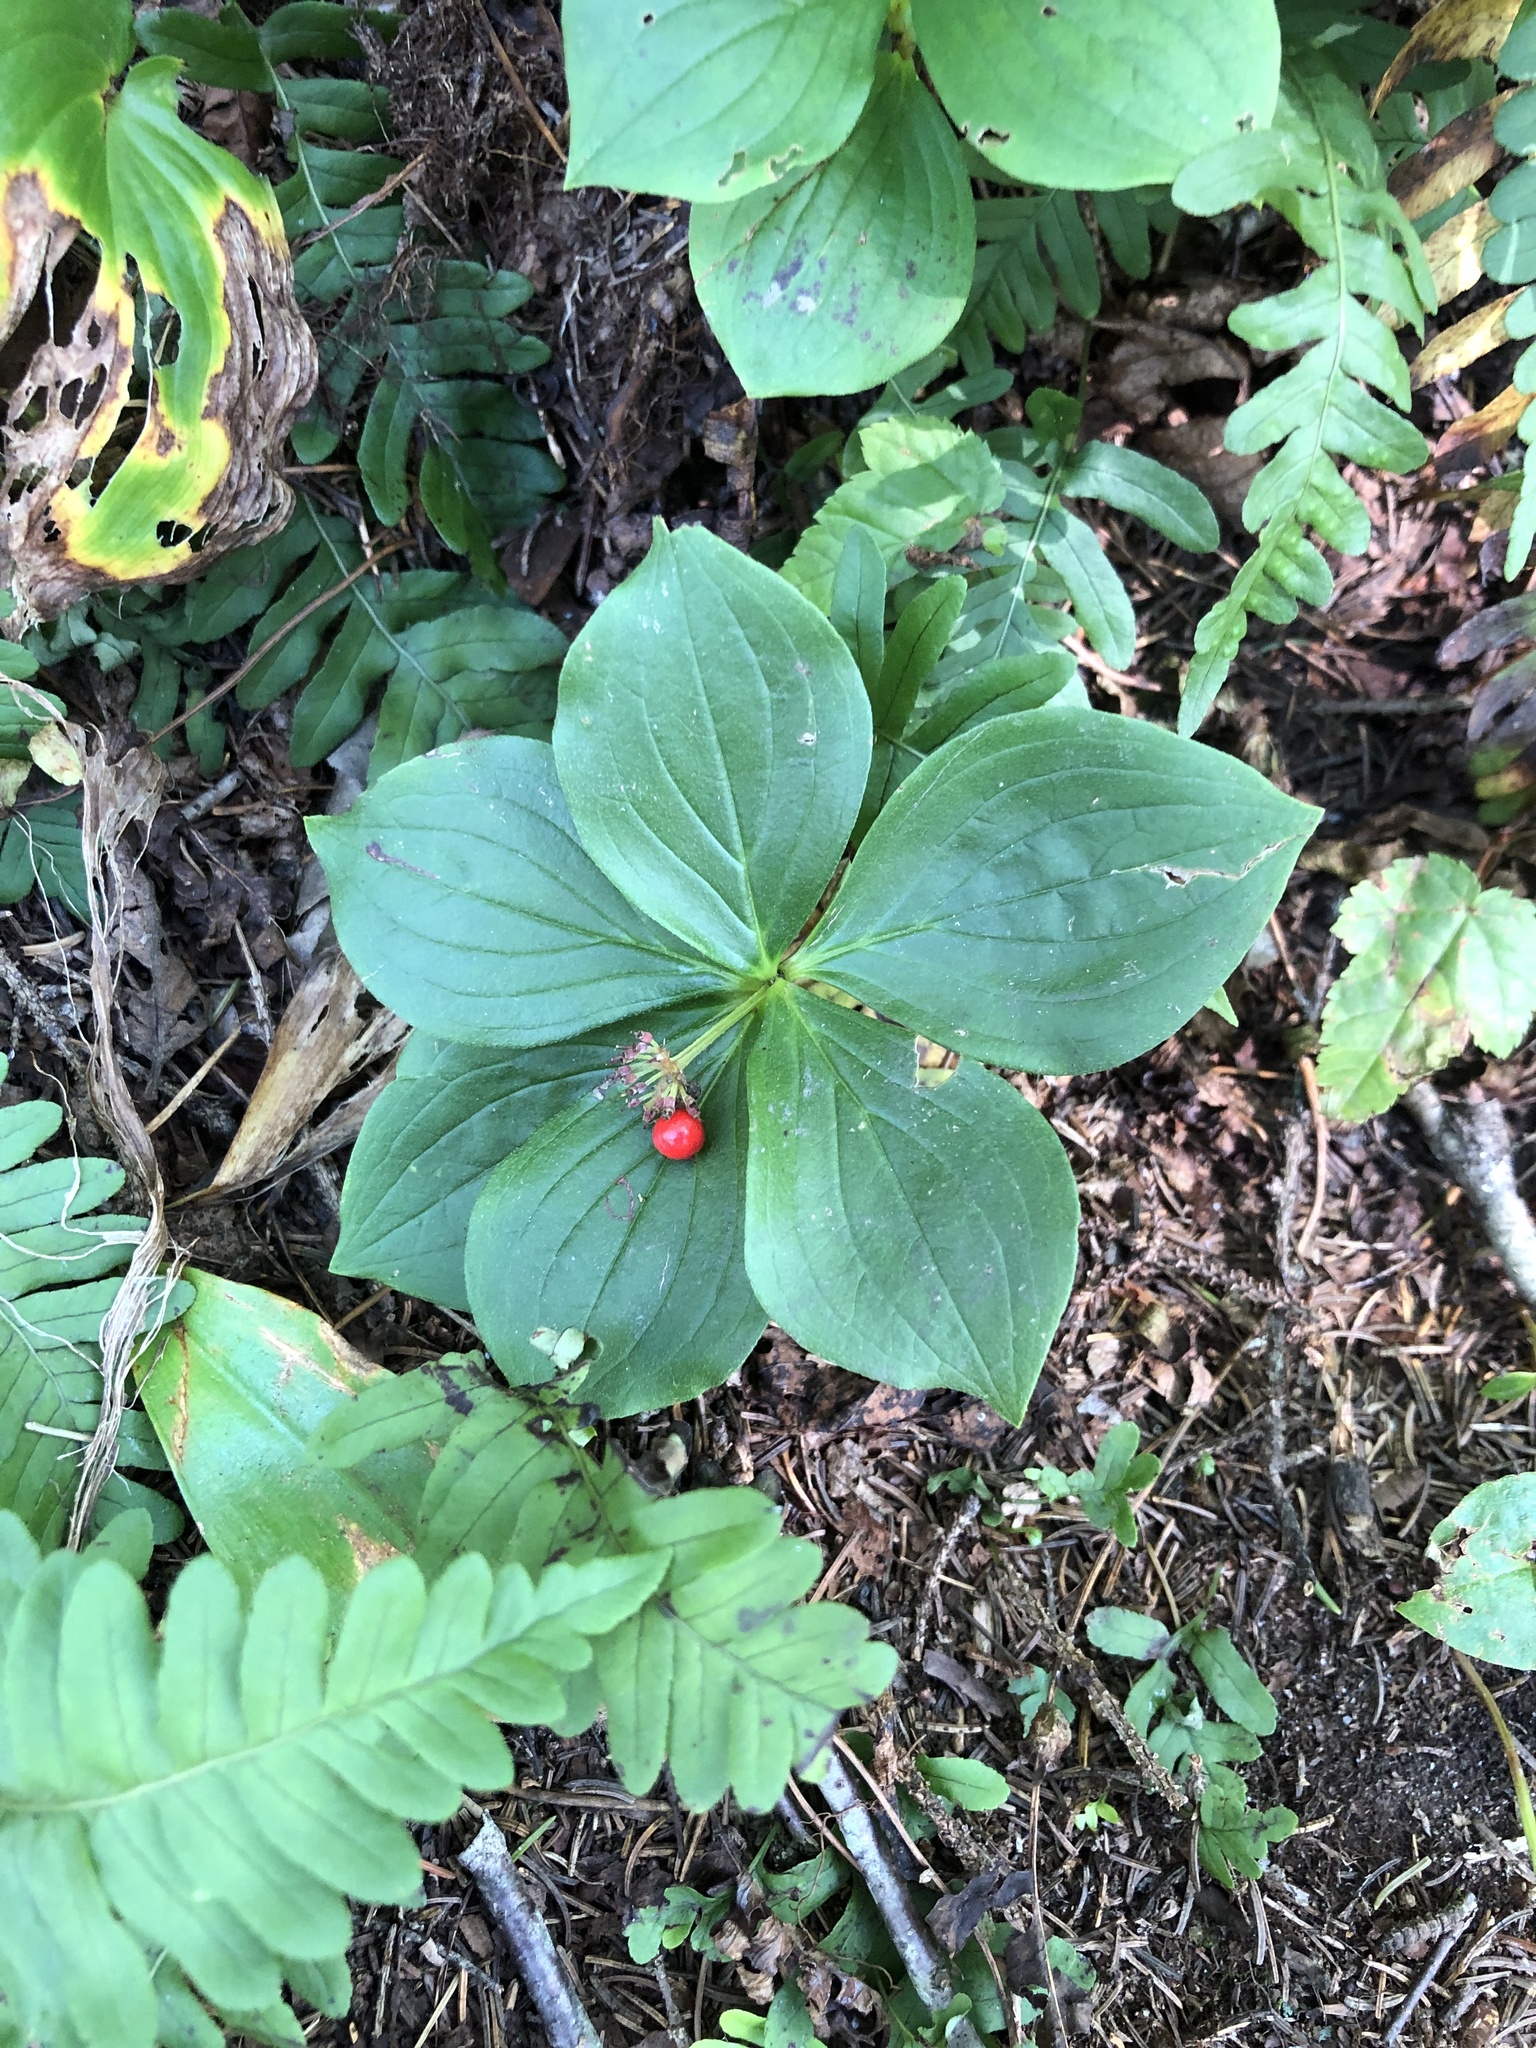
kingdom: Plantae
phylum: Tracheophyta
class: Magnoliopsida
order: Cornales
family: Cornaceae
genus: Cornus
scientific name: Cornus canadensis
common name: Creeping dogwood
